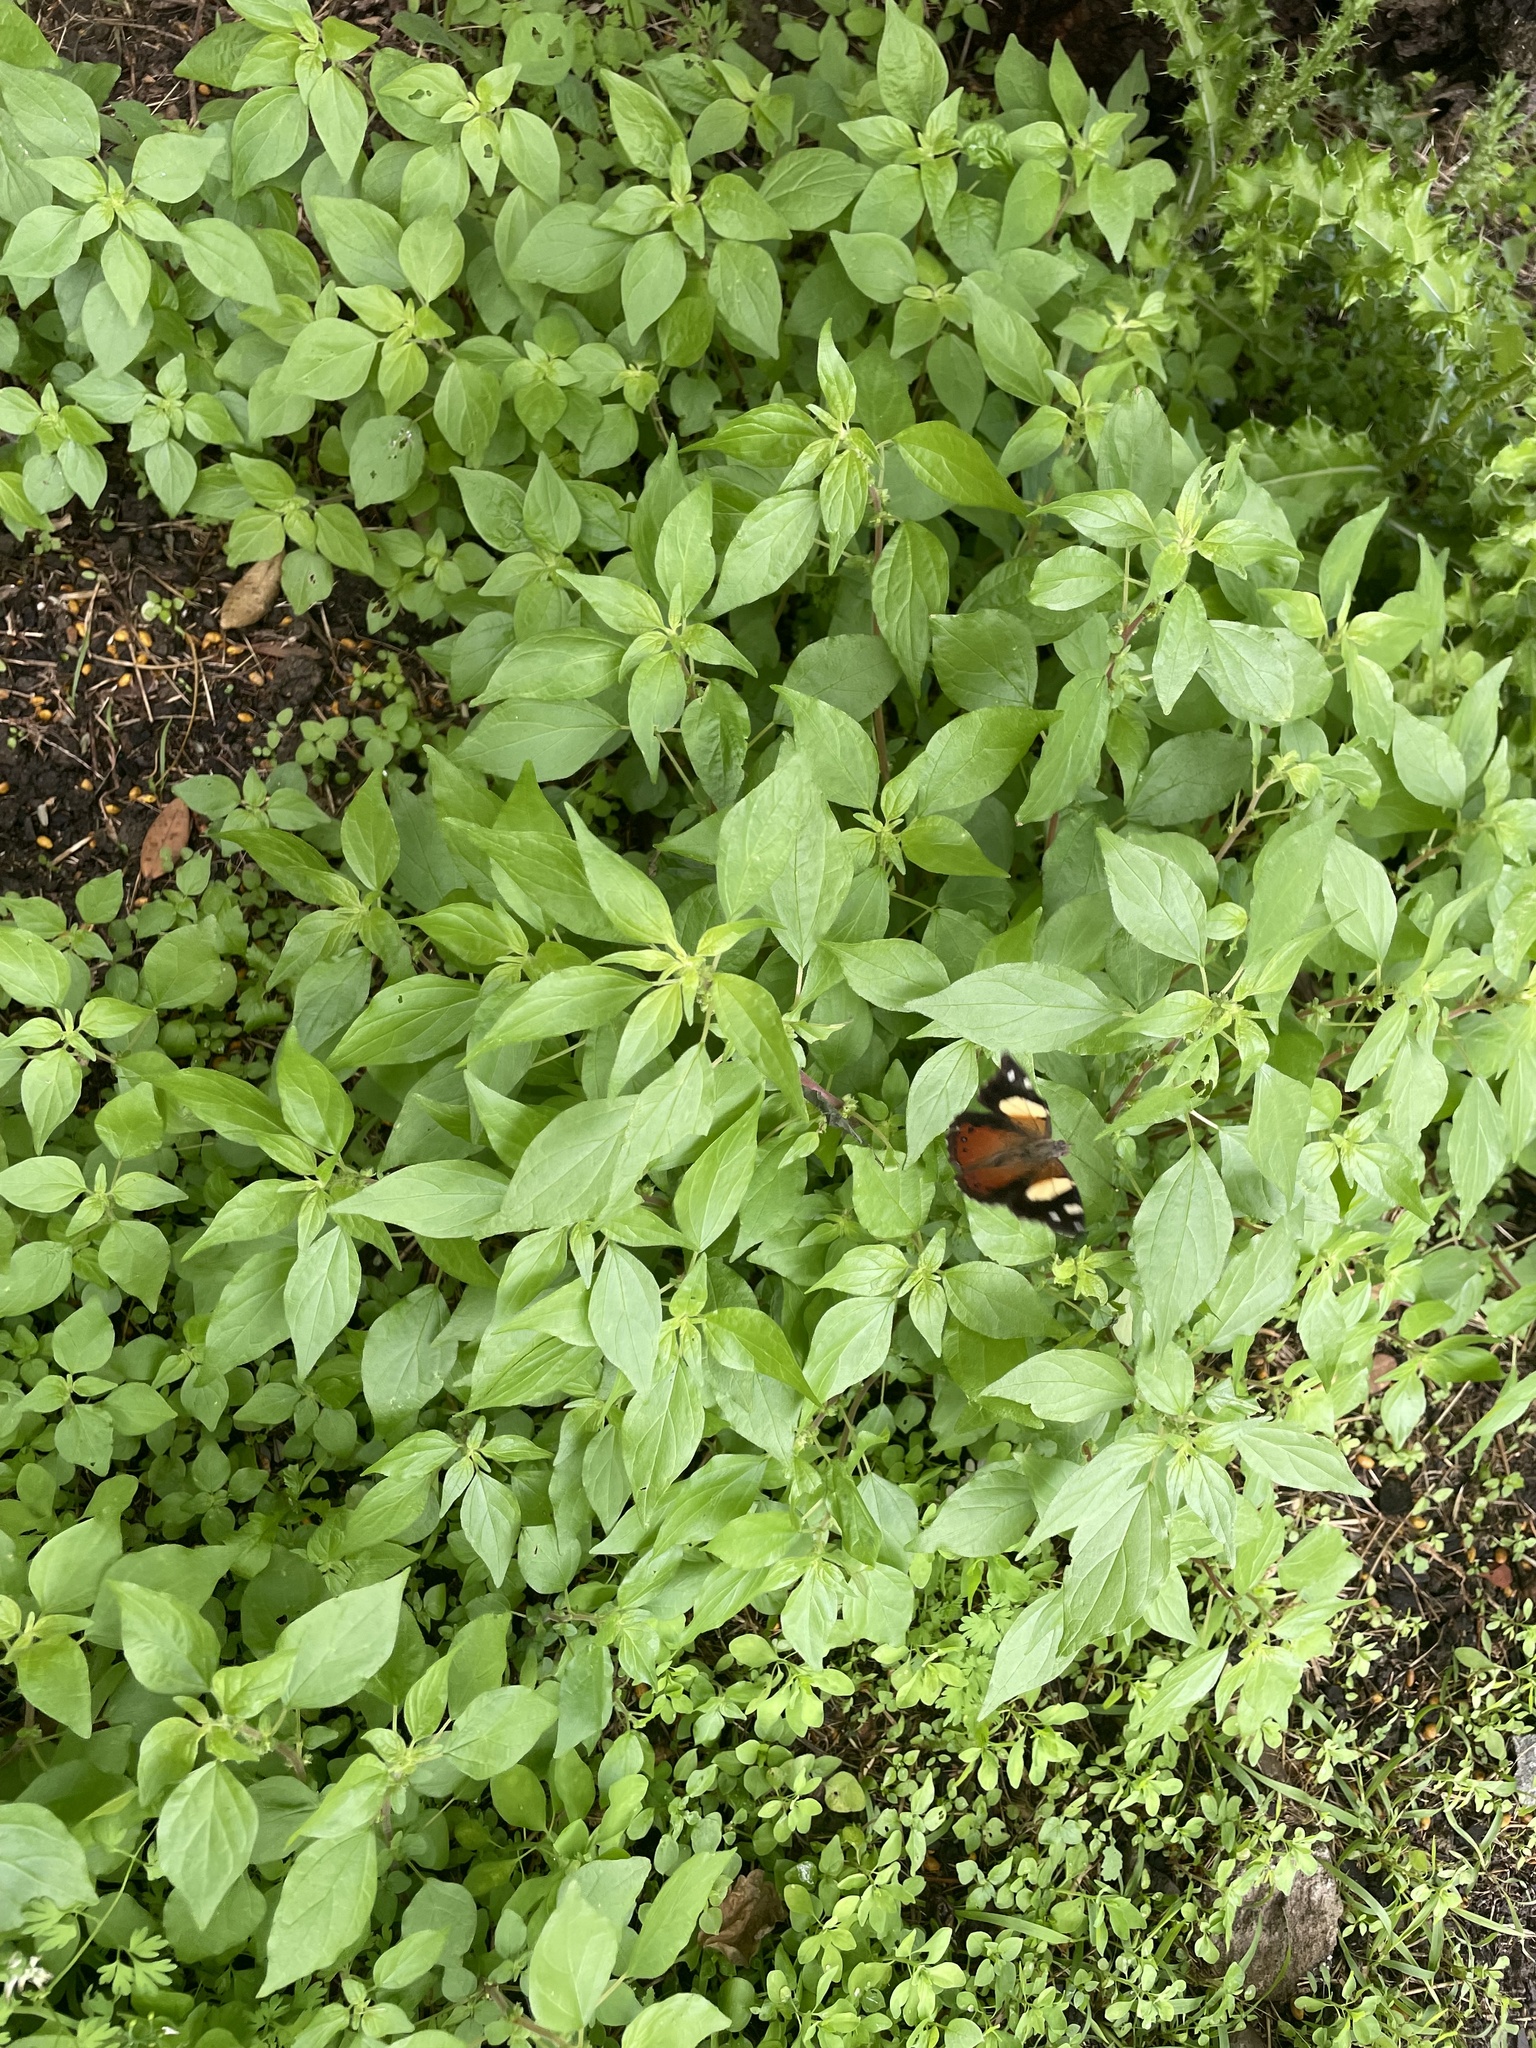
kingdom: Animalia
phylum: Arthropoda
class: Insecta
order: Lepidoptera
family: Nymphalidae
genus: Vanessa
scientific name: Vanessa itea
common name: Yellow admiral
